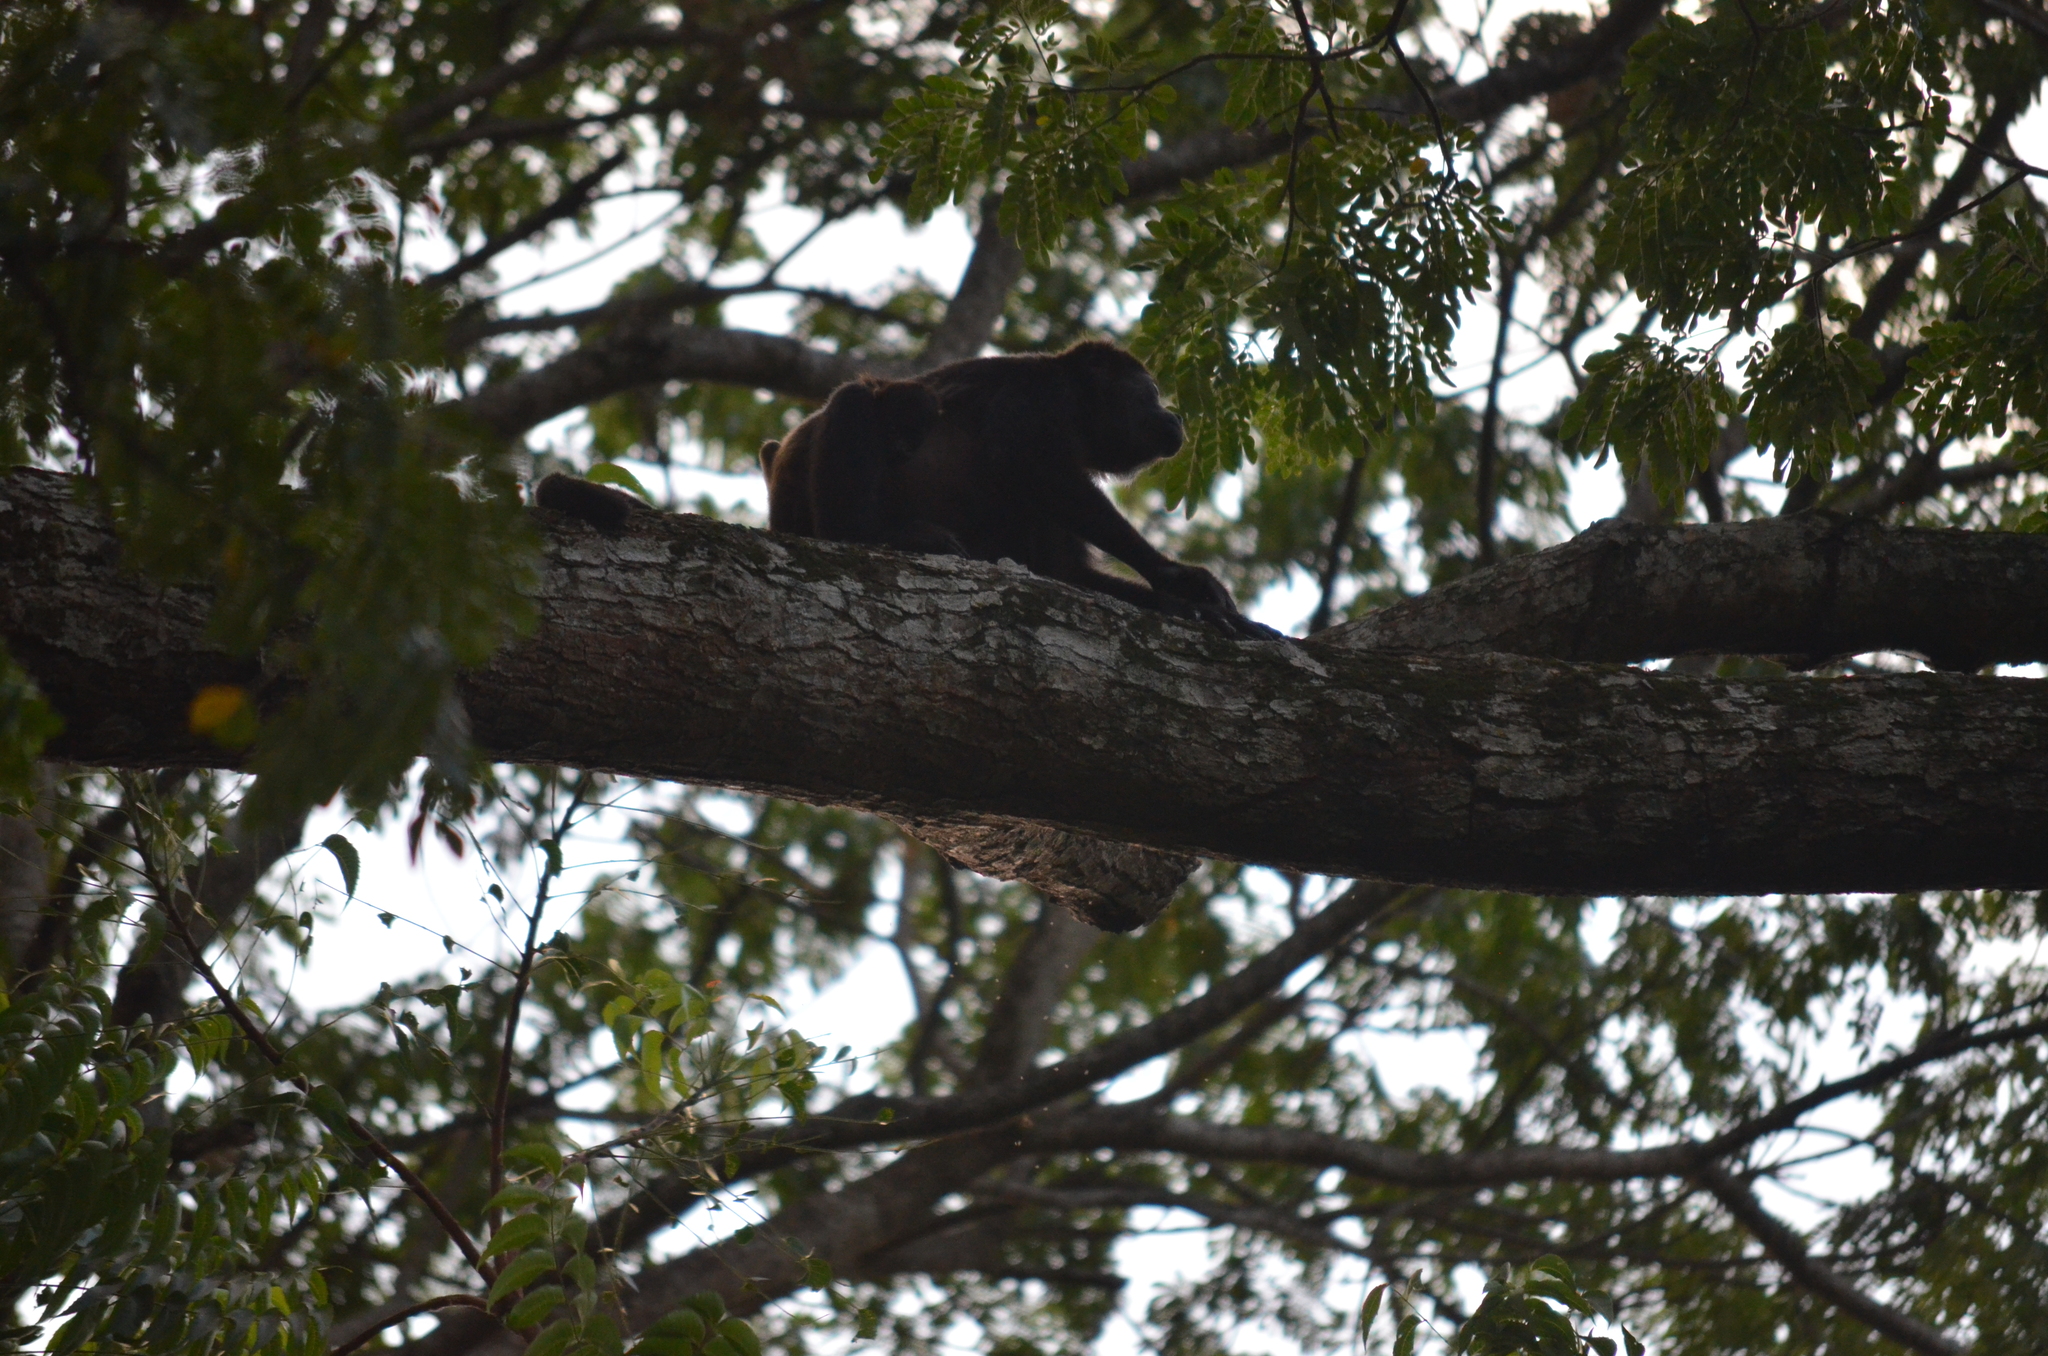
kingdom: Animalia
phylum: Chordata
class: Mammalia
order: Primates
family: Atelidae
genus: Alouatta
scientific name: Alouatta palliata
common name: Mantled howler
